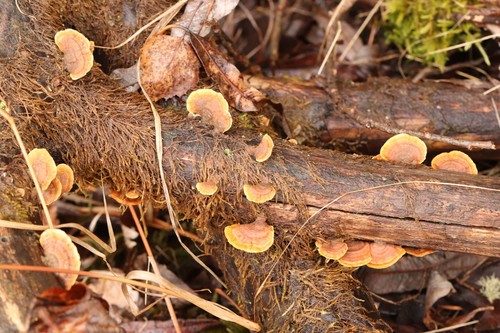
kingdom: Fungi
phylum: Basidiomycota
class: Agaricomycetes
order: Russulales
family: Stereaceae
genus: Stereum
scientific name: Stereum hirsutum
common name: Hairy curtain crust
